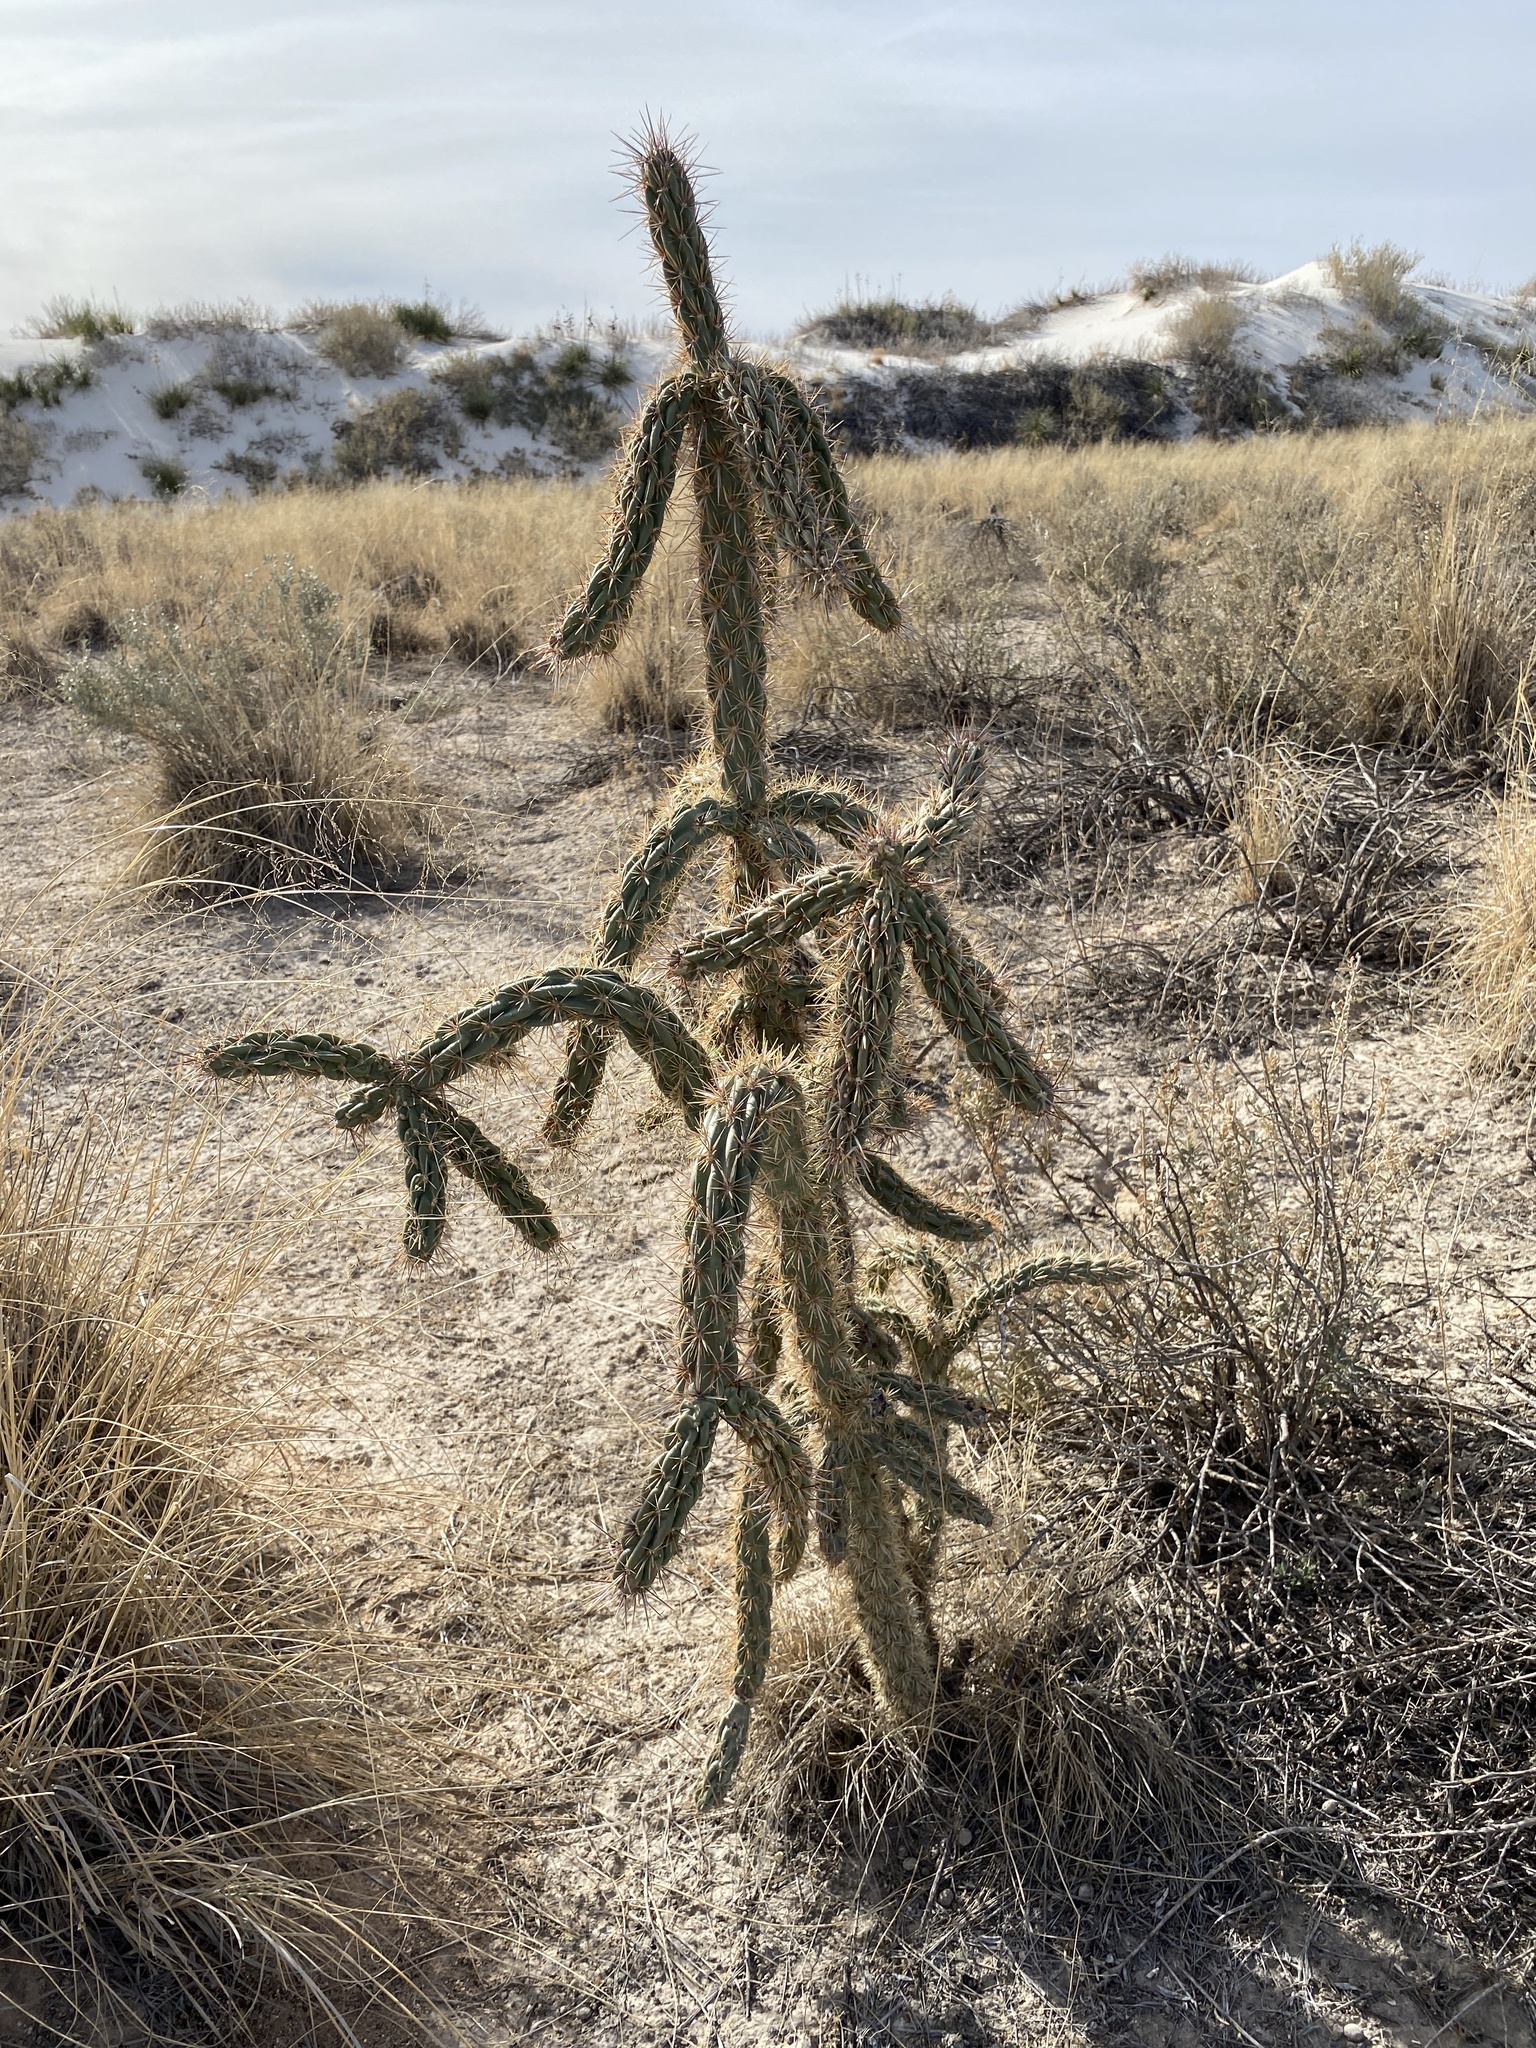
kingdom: Plantae
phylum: Tracheophyta
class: Magnoliopsida
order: Caryophyllales
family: Cactaceae
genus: Cylindropuntia
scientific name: Cylindropuntia imbricata
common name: Candelabrum cactus
